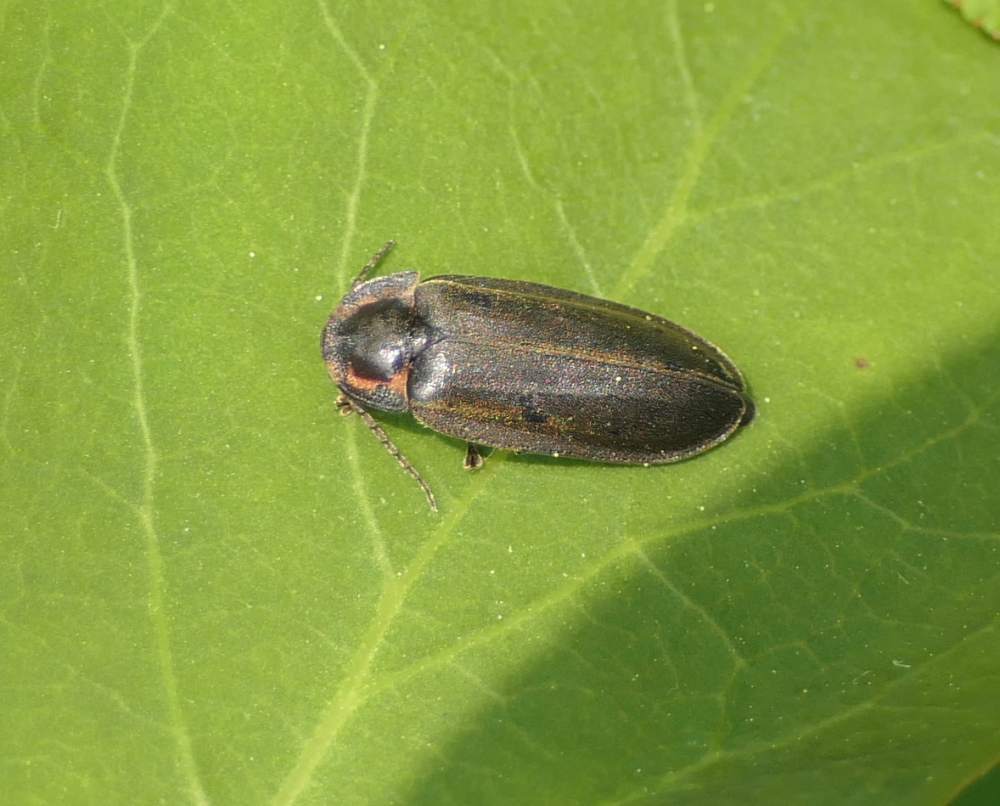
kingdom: Animalia
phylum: Arthropoda
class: Insecta
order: Coleoptera
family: Lampyridae
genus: Photinus
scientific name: Photinus corrusca
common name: Winter firefly
